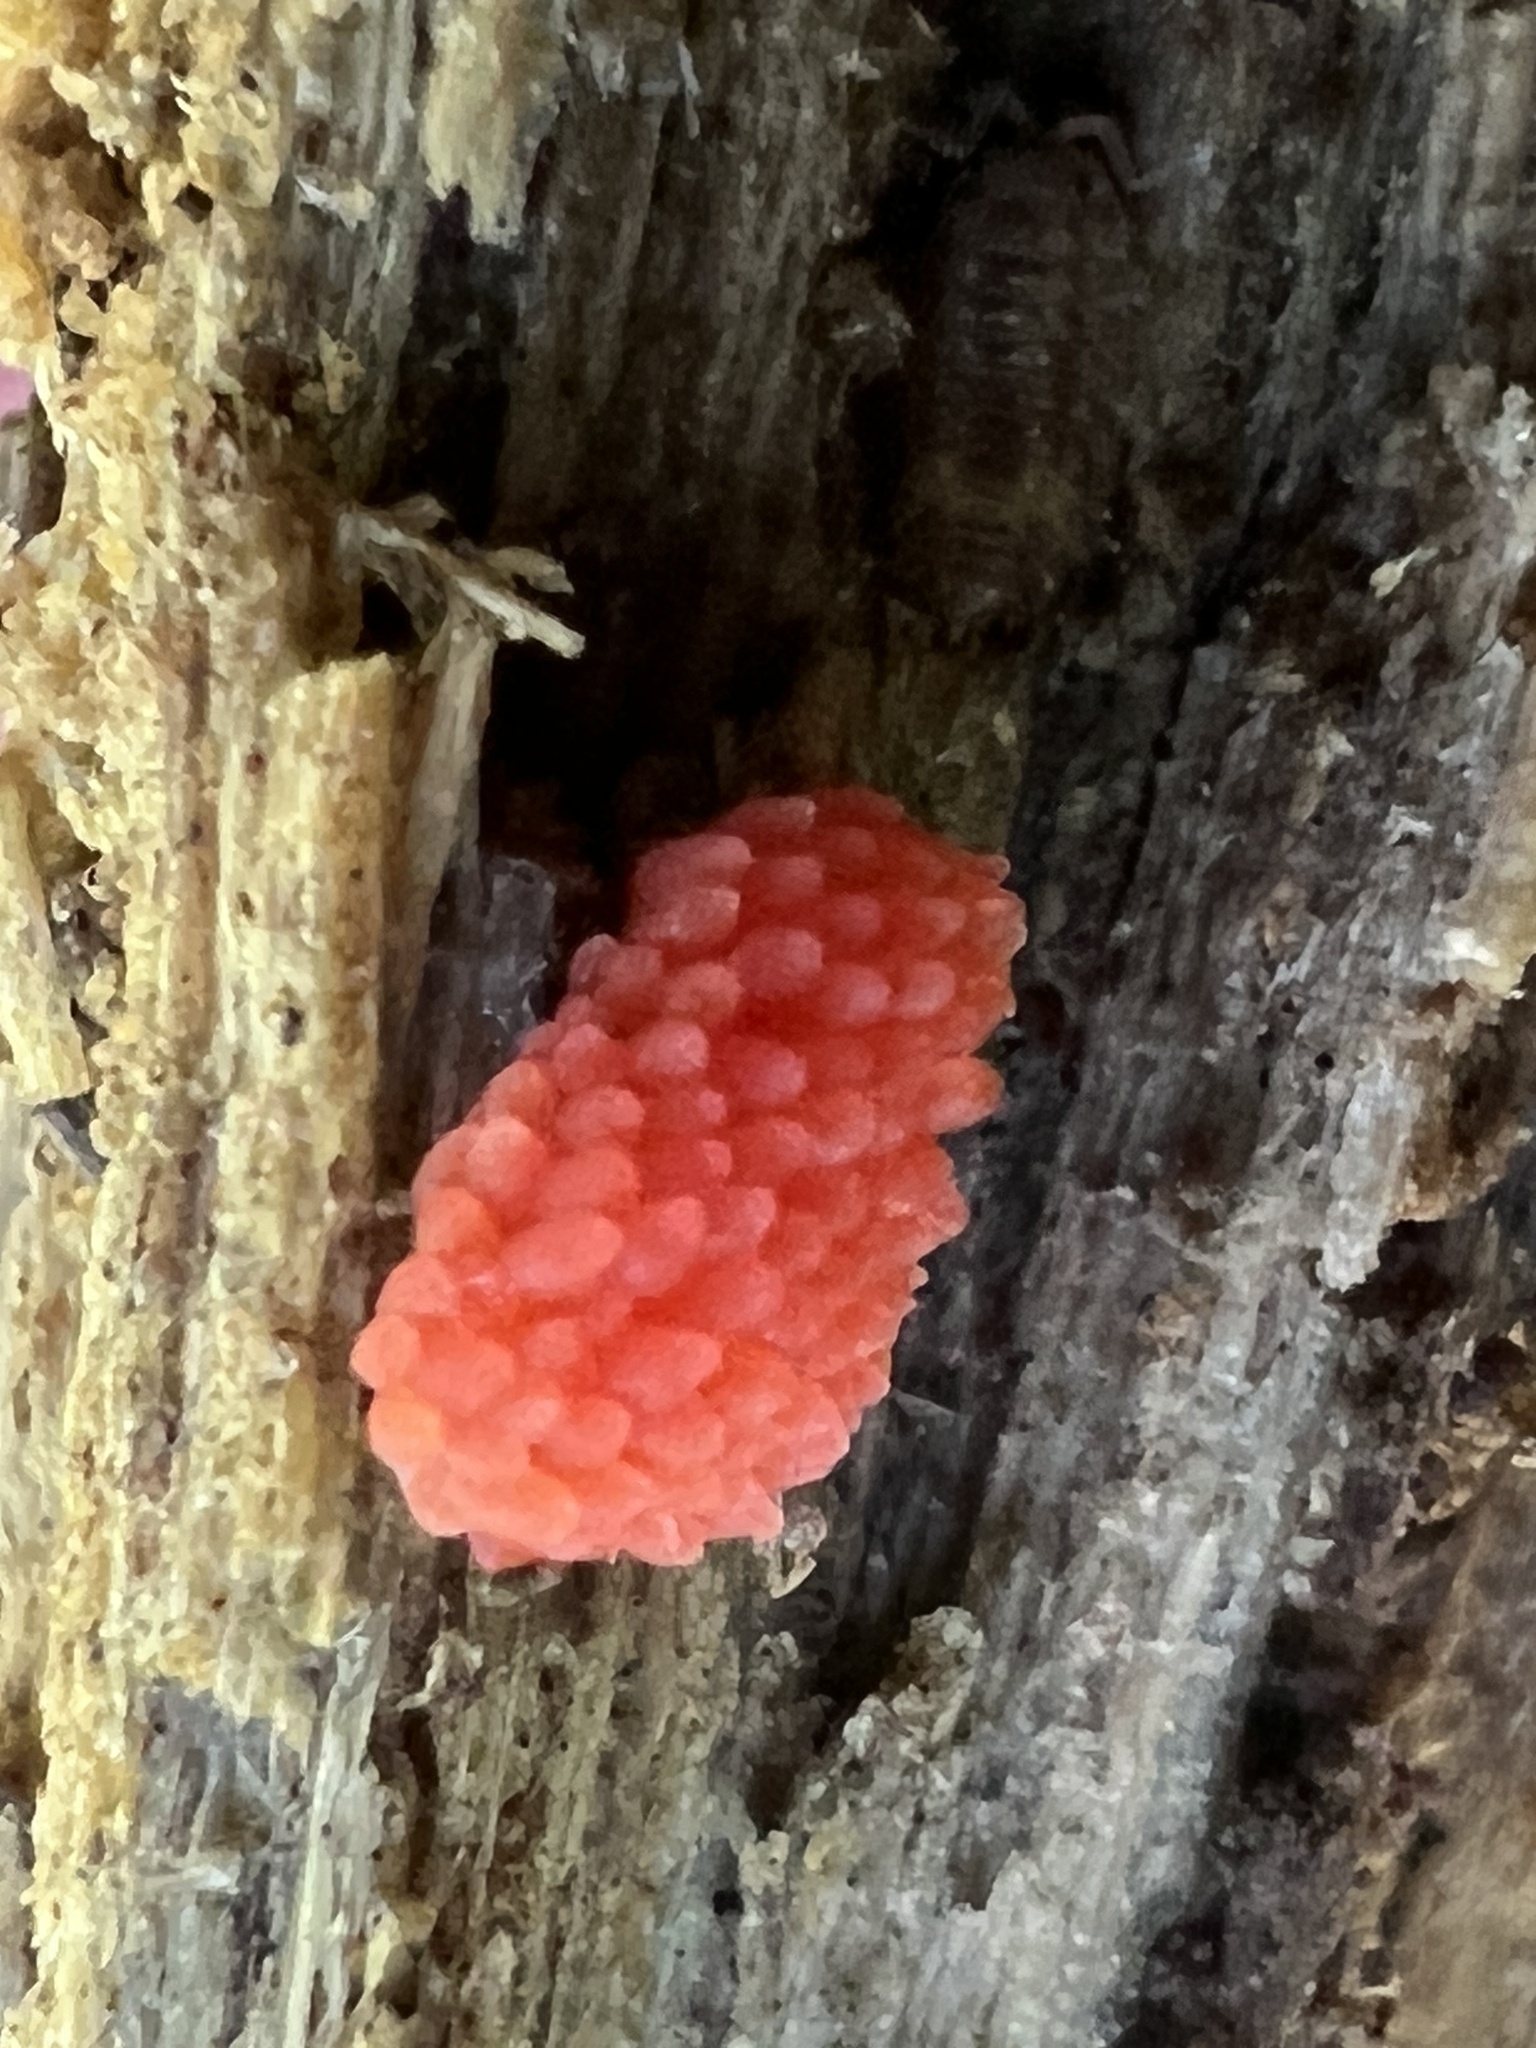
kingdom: Protozoa
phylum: Mycetozoa
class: Myxomycetes
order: Cribrariales
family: Tubiferaceae
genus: Tubifera
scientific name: Tubifera ferruginosa
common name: Red raspberry slime mold
